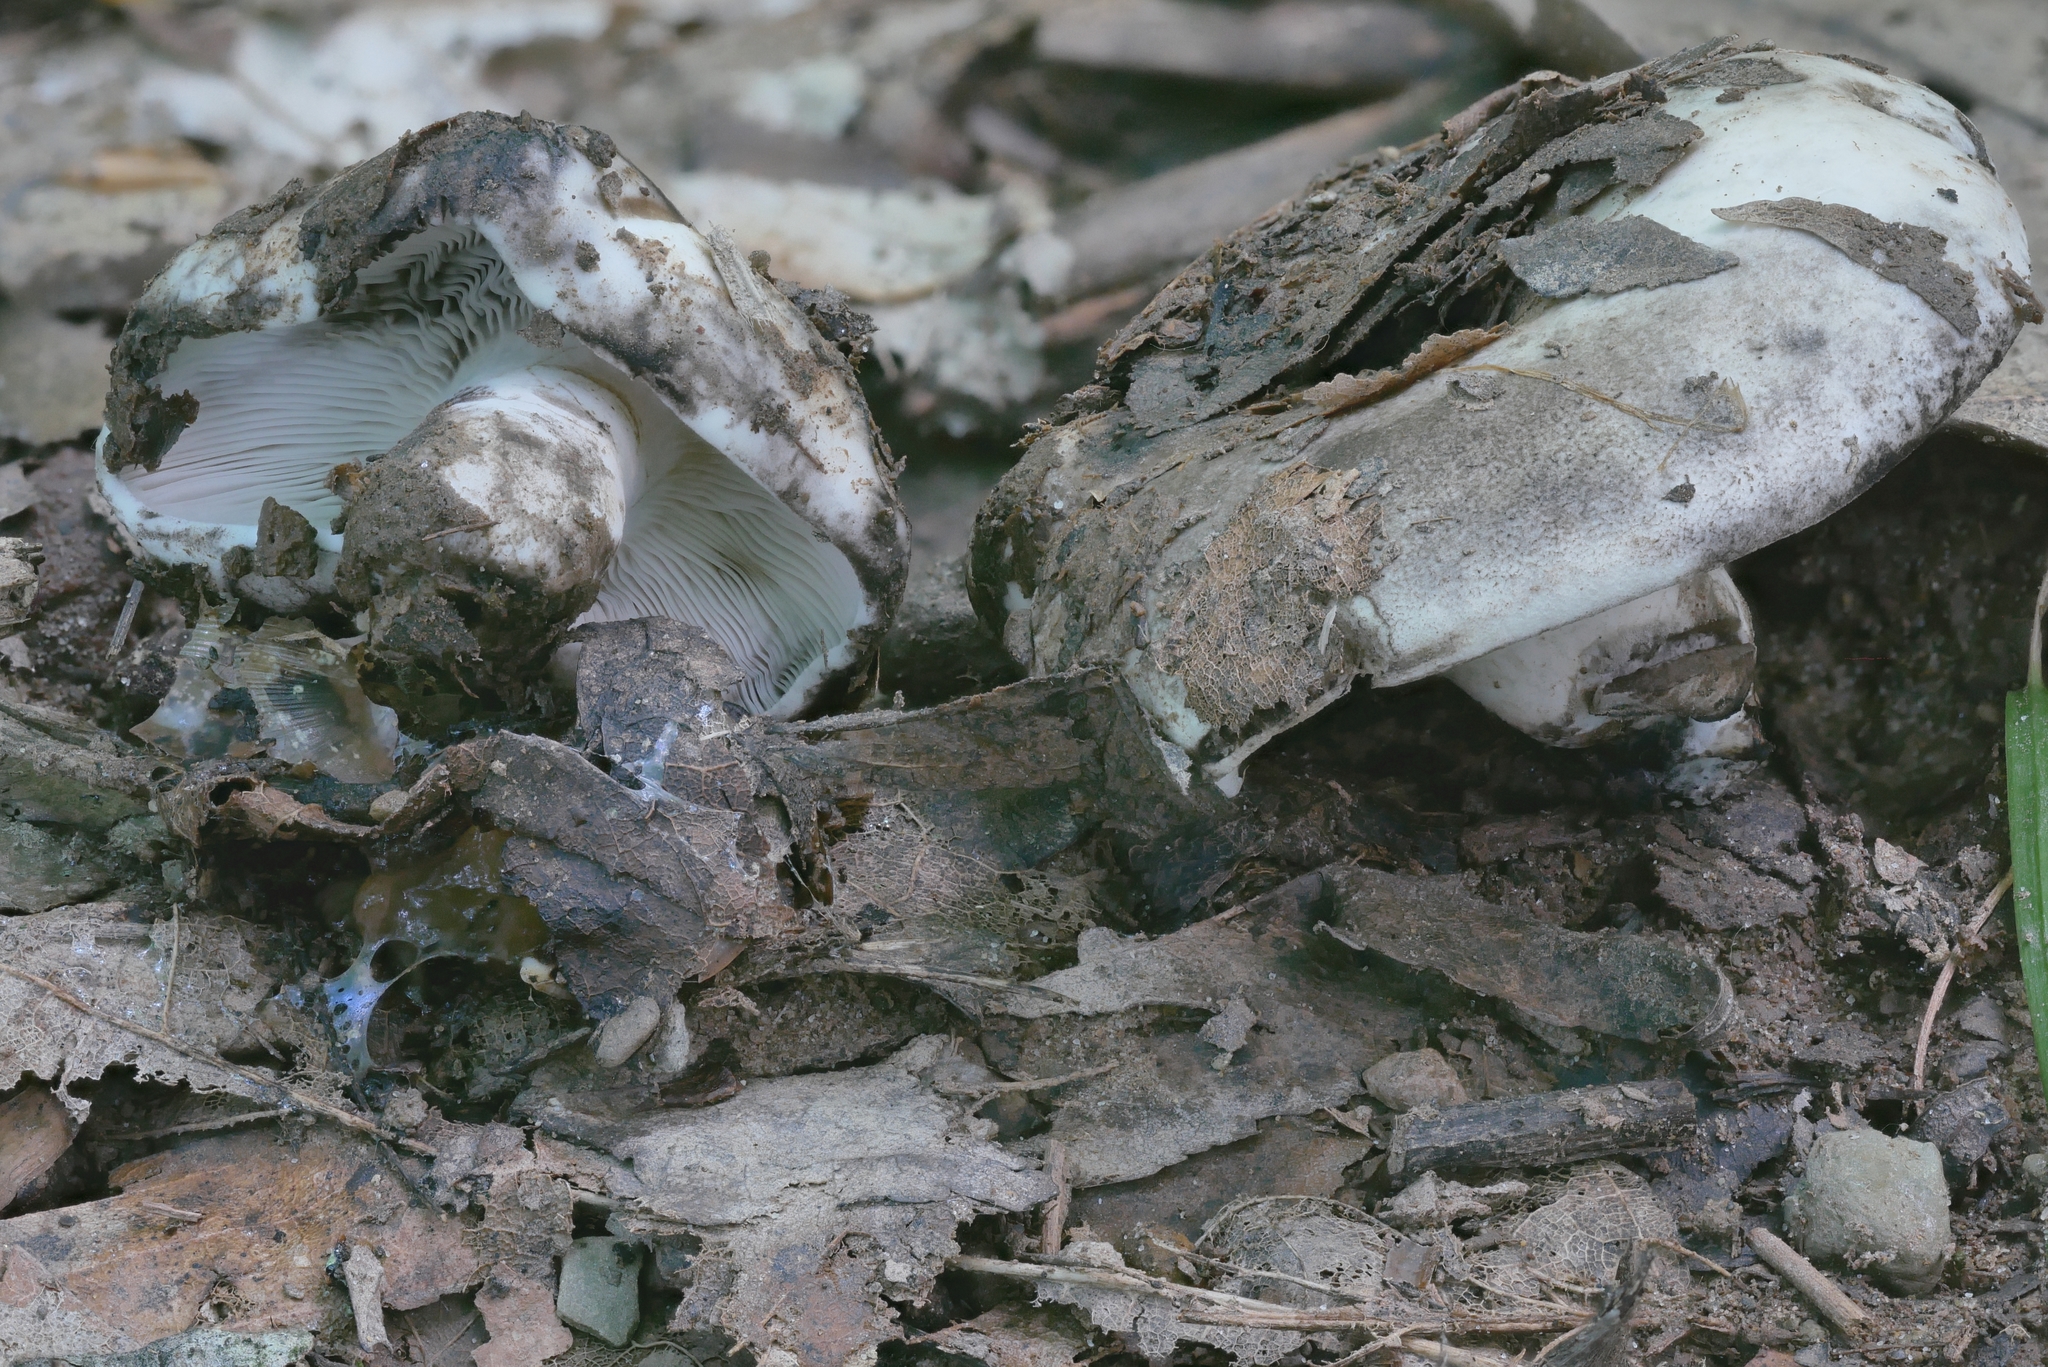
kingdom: Fungi
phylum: Basidiomycota
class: Agaricomycetes
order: Russulales
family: Russulaceae
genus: Russula
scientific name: Russula albonigra
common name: Menthol brittlegill
